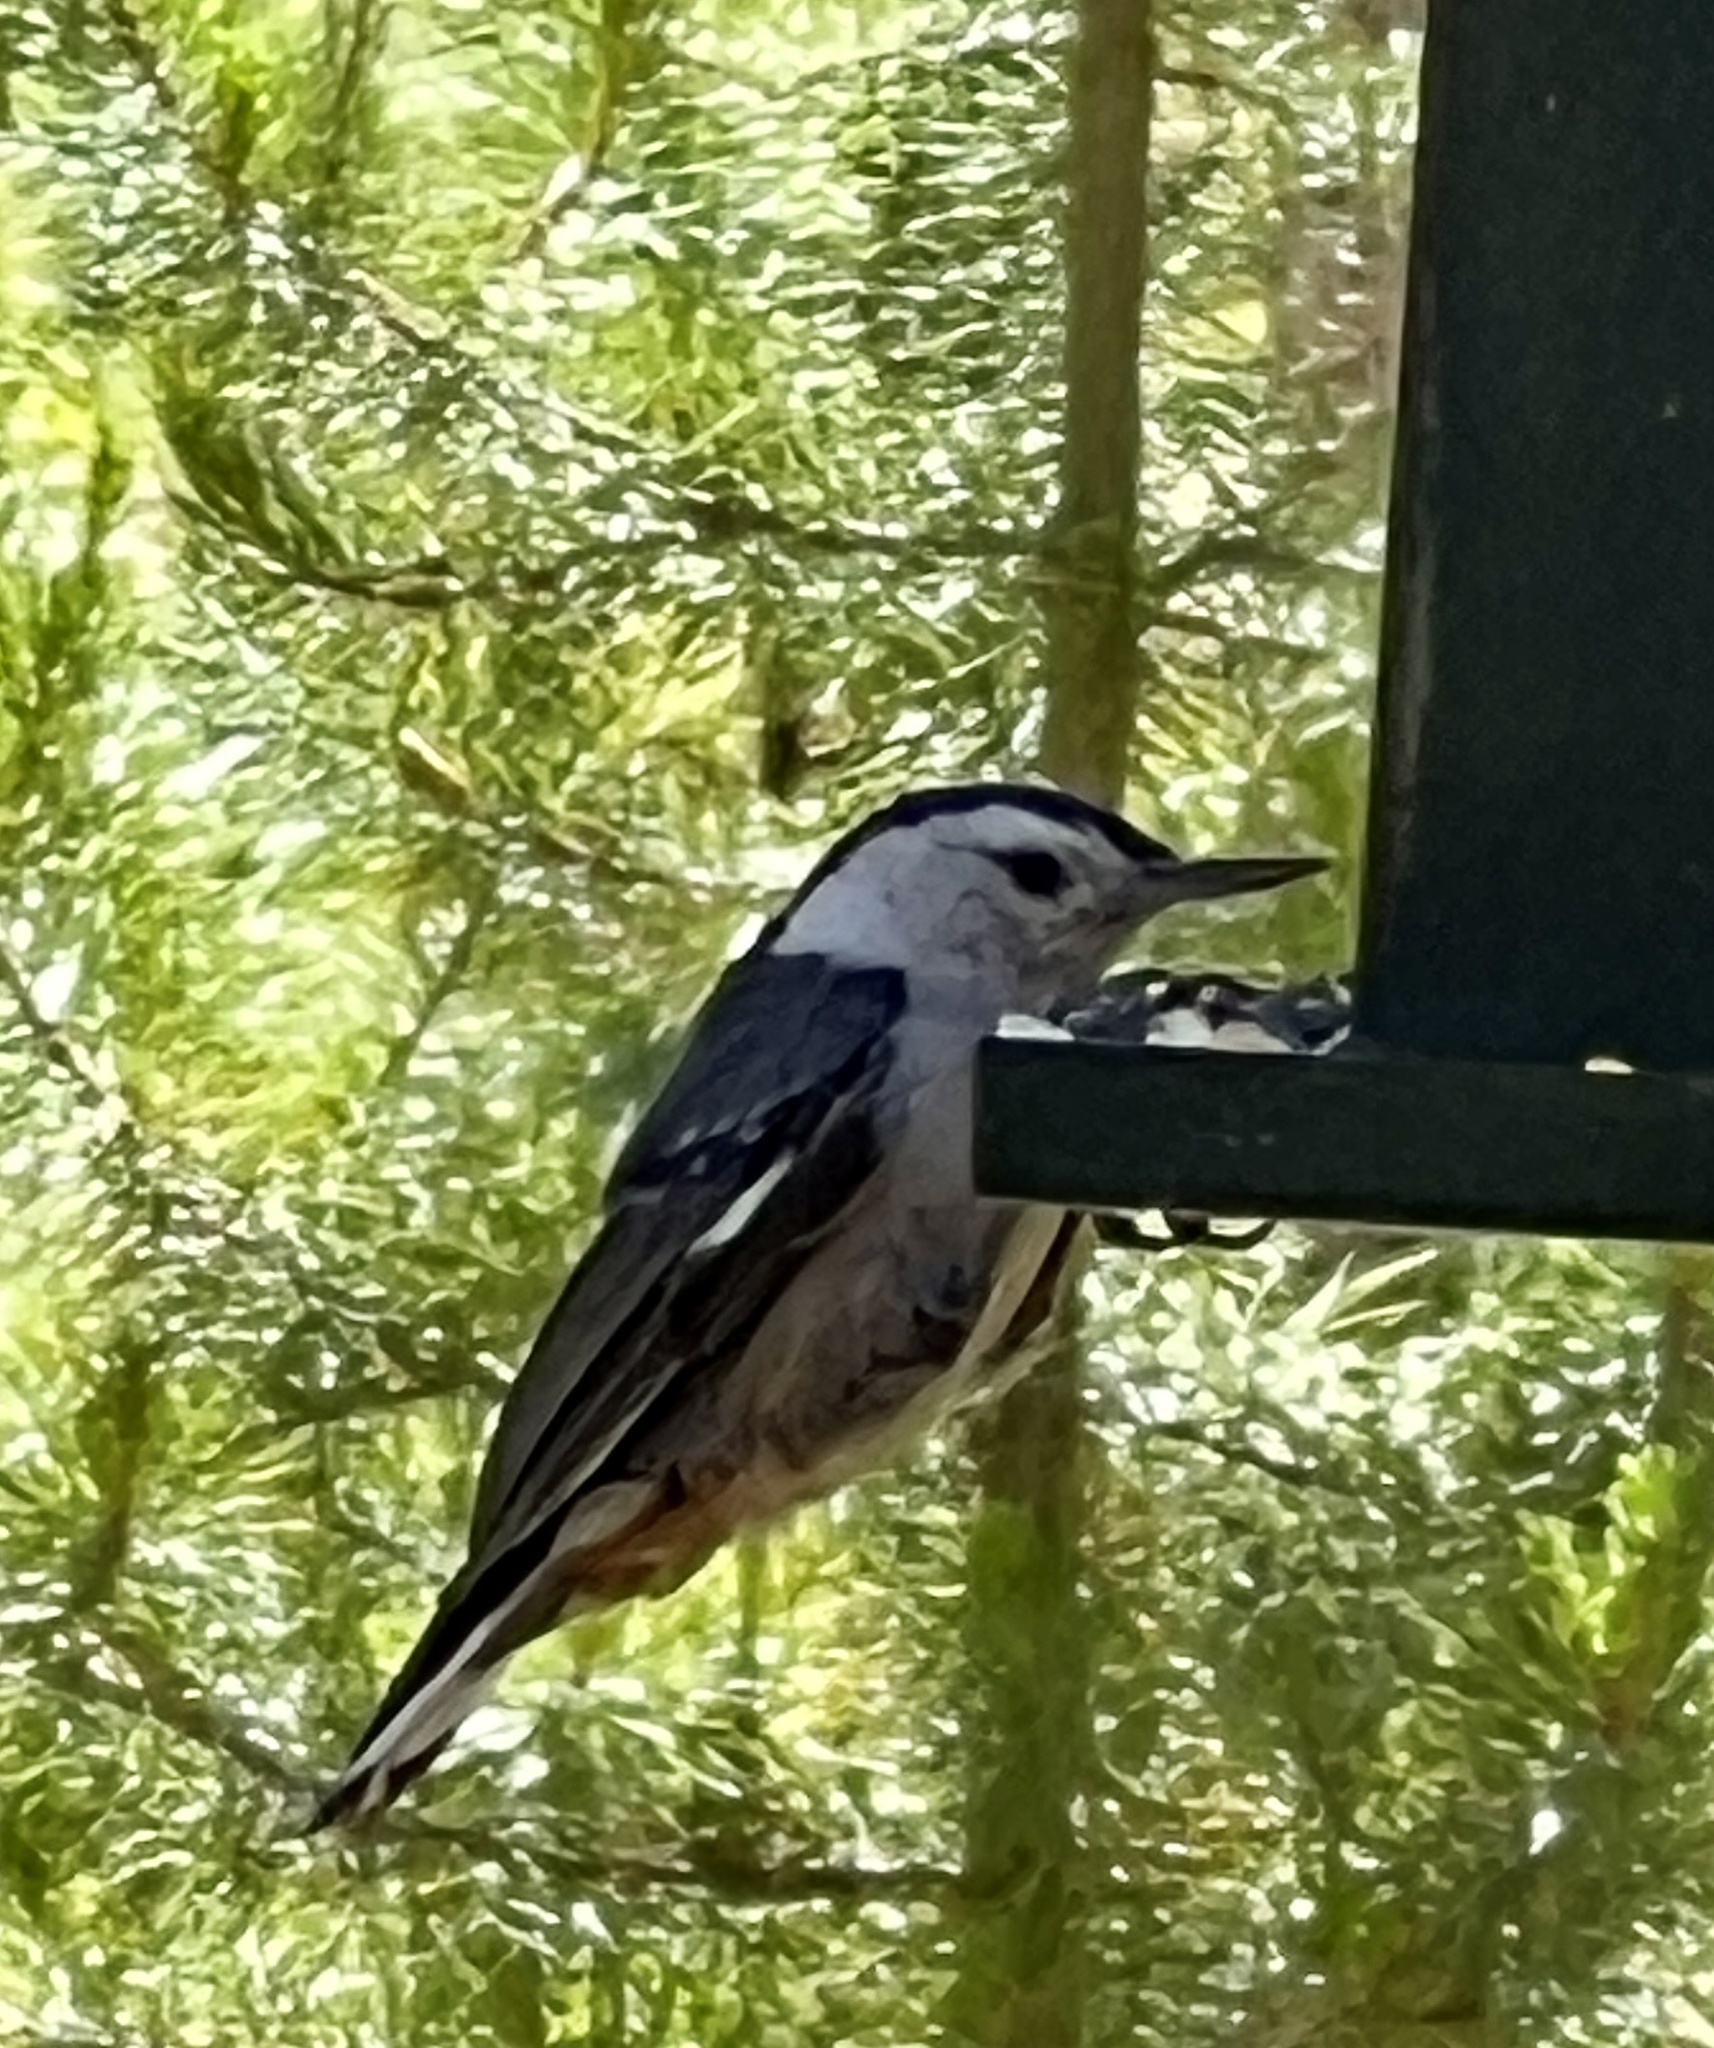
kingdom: Animalia
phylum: Chordata
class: Aves
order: Passeriformes
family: Sittidae
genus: Sitta
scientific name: Sitta carolinensis
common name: White-breasted nuthatch
